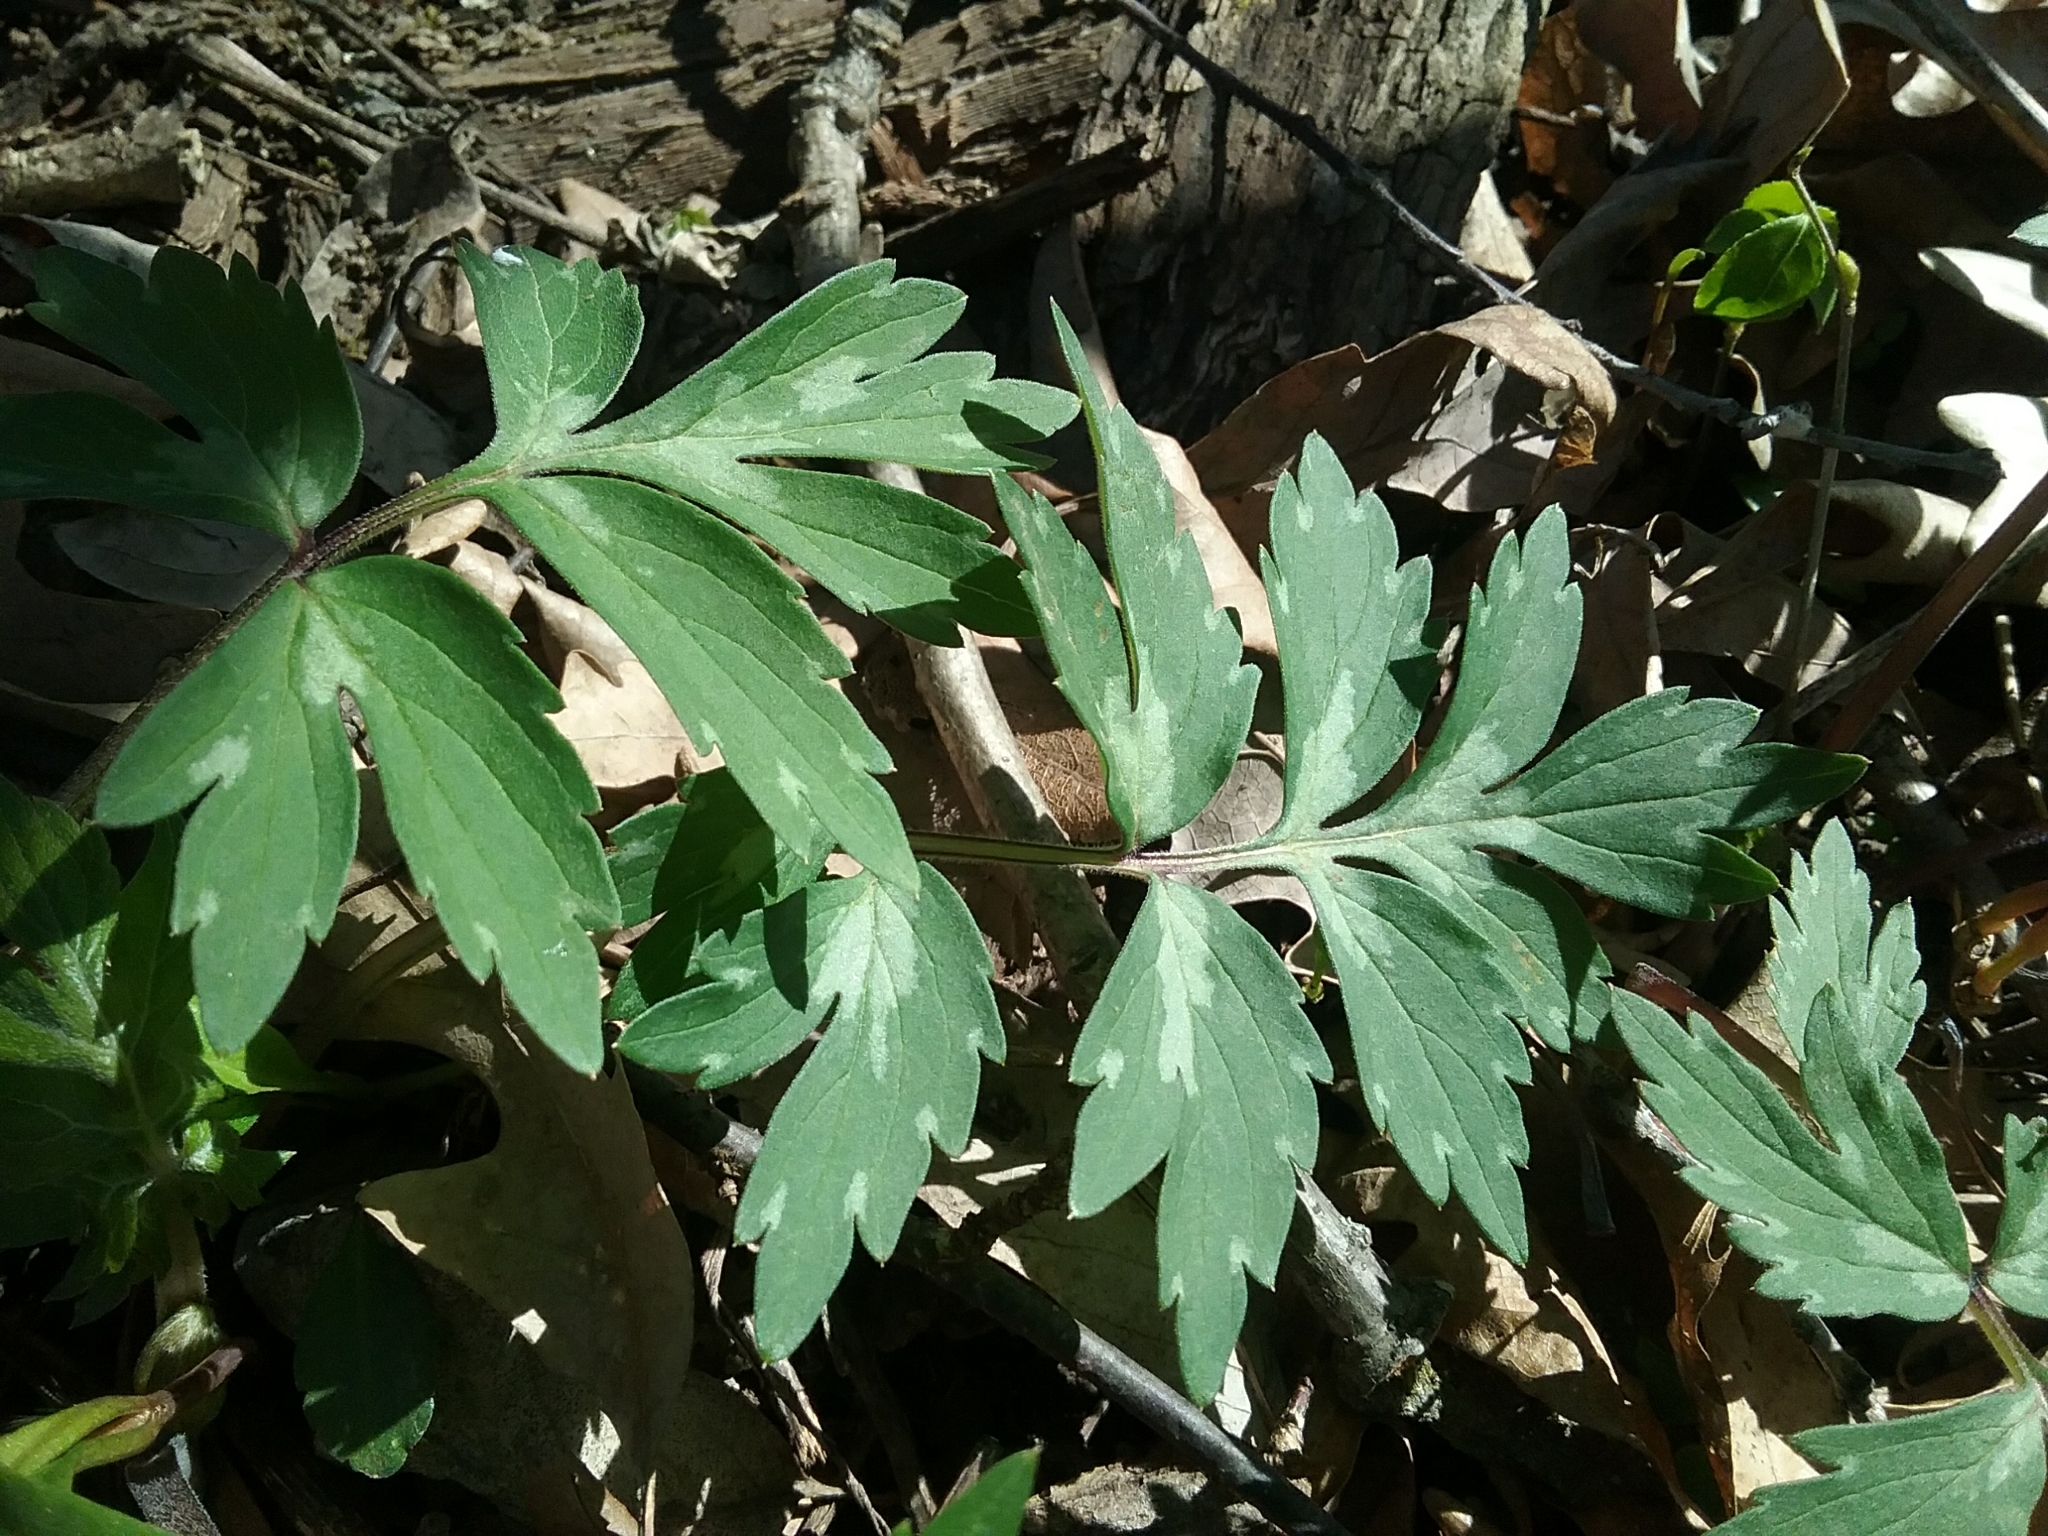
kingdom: Plantae
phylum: Tracheophyta
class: Magnoliopsida
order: Boraginales
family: Hydrophyllaceae
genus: Hydrophyllum
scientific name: Hydrophyllum virginianum
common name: Virginia waterleaf
